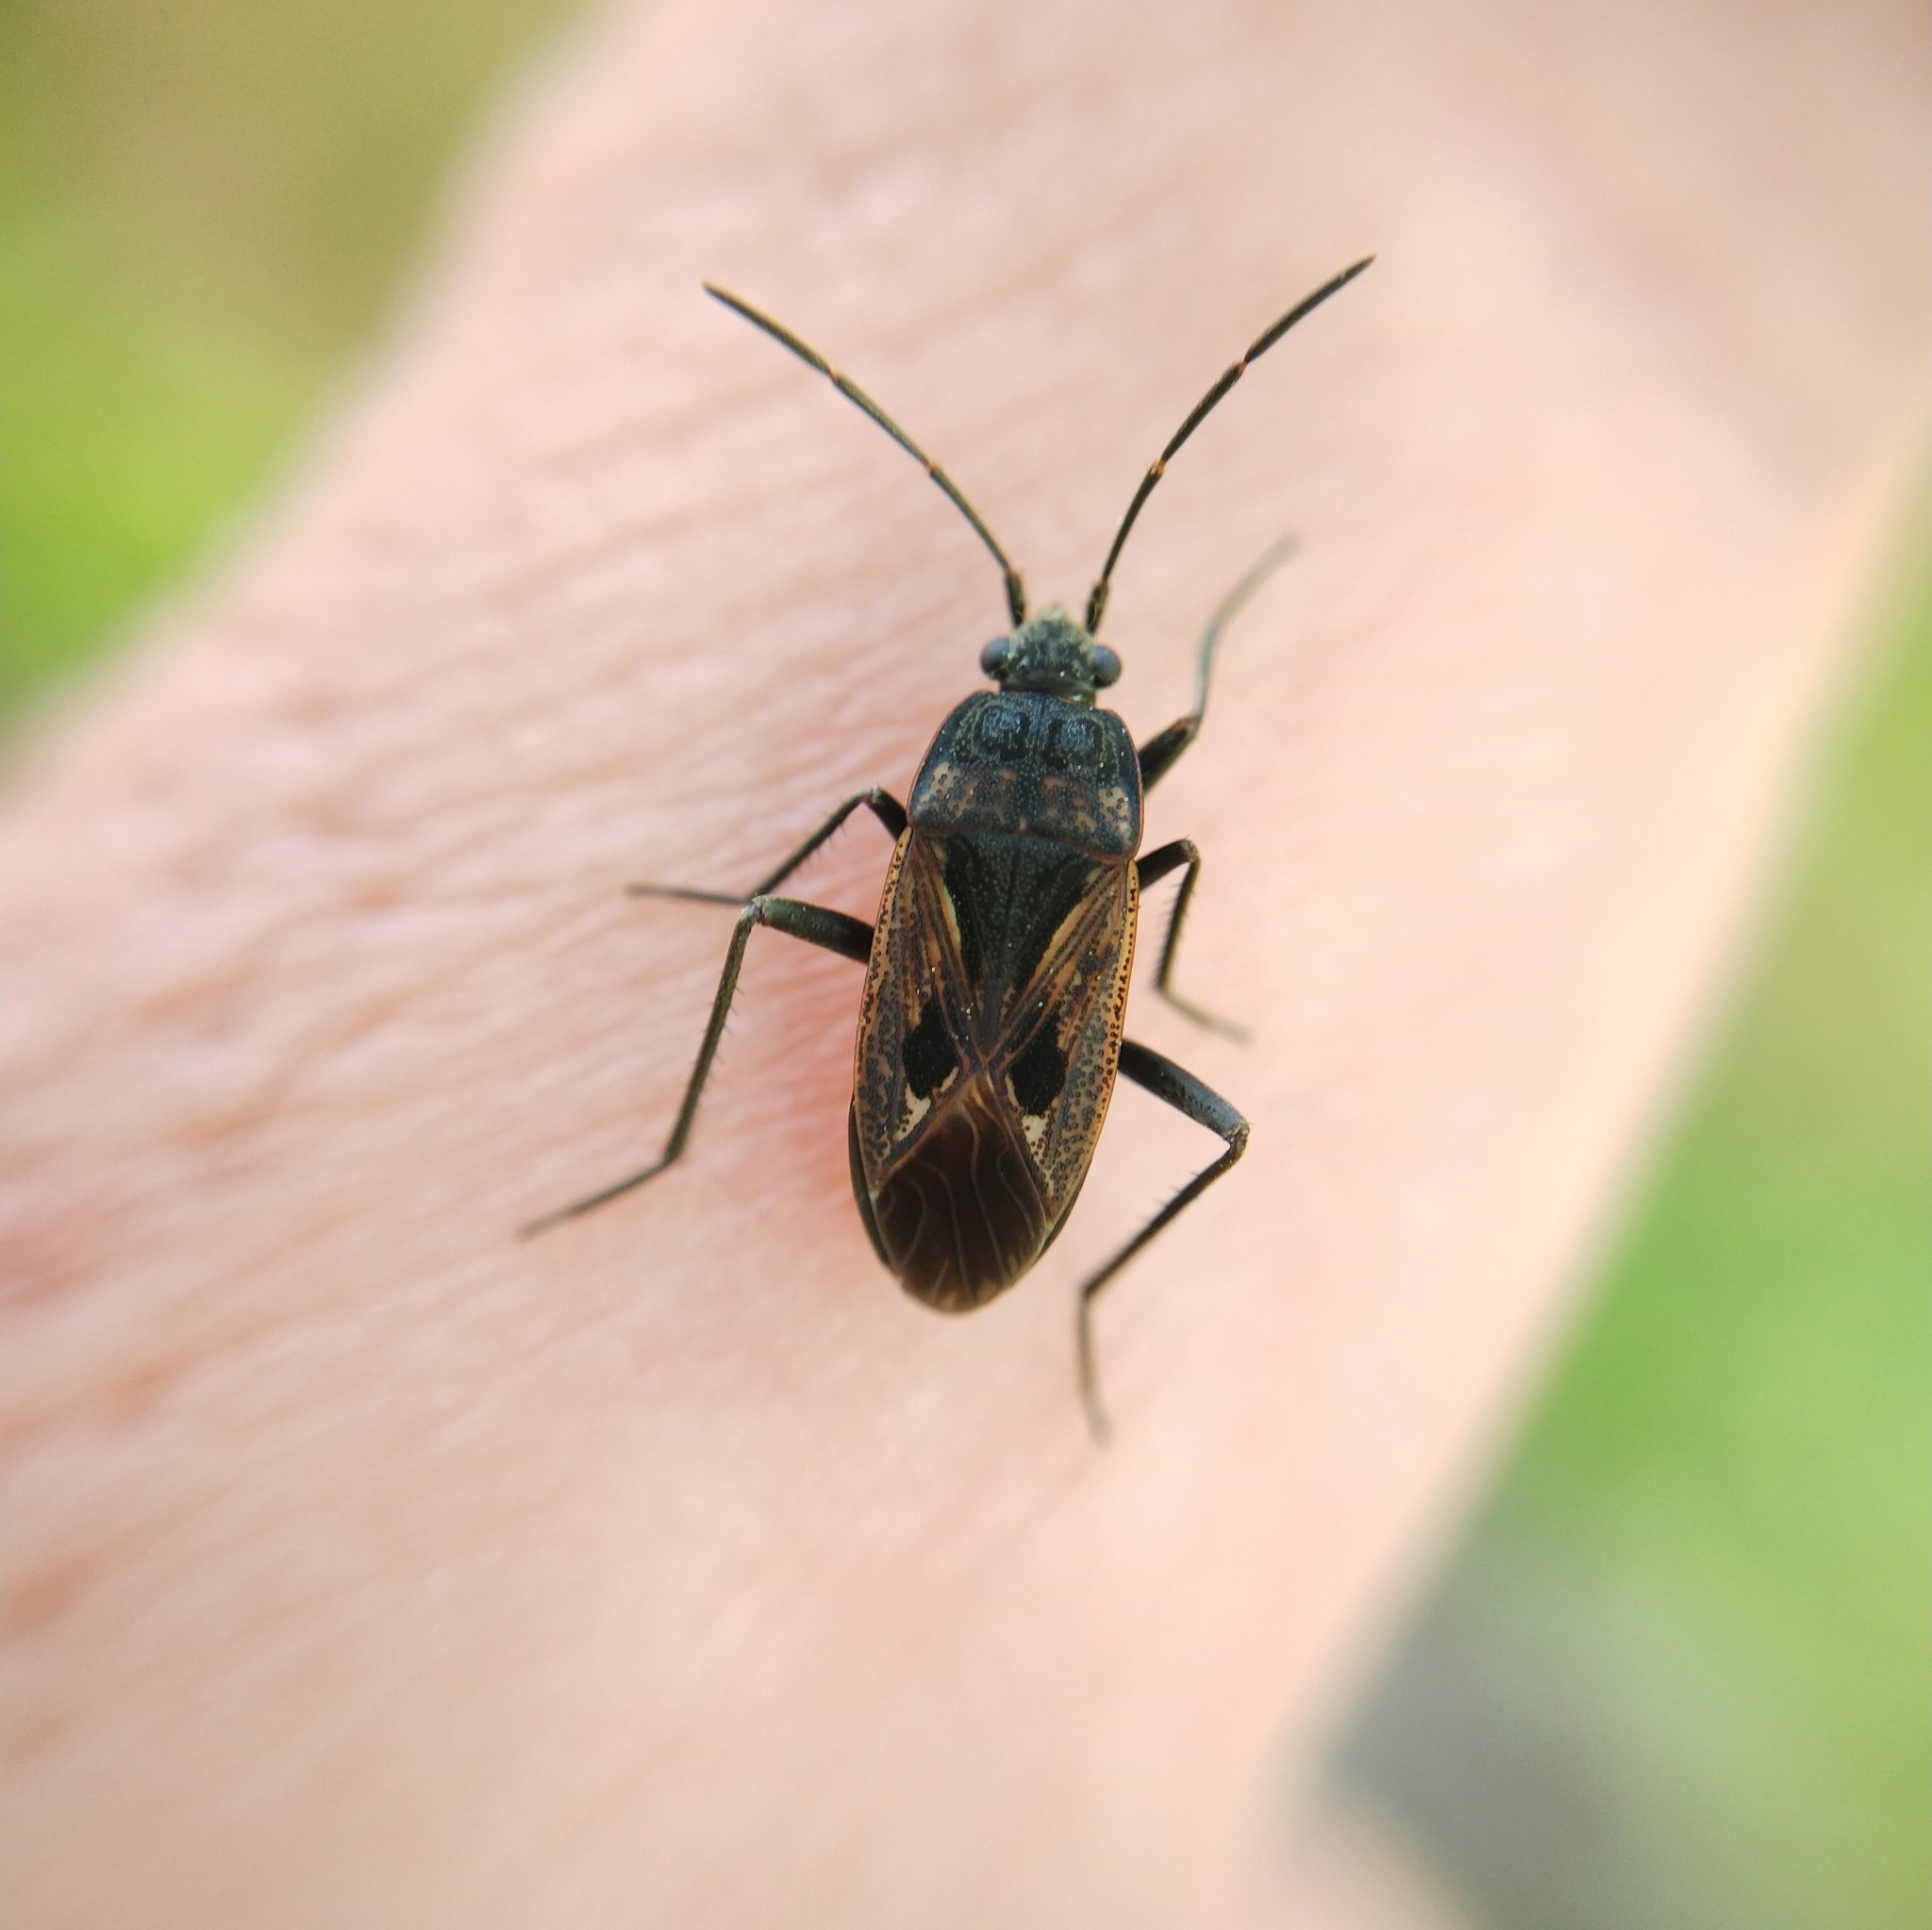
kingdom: Animalia
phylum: Arthropoda
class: Insecta
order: Hemiptera
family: Rhyparochromidae
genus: Rhyparochromus
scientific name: Rhyparochromus pini
